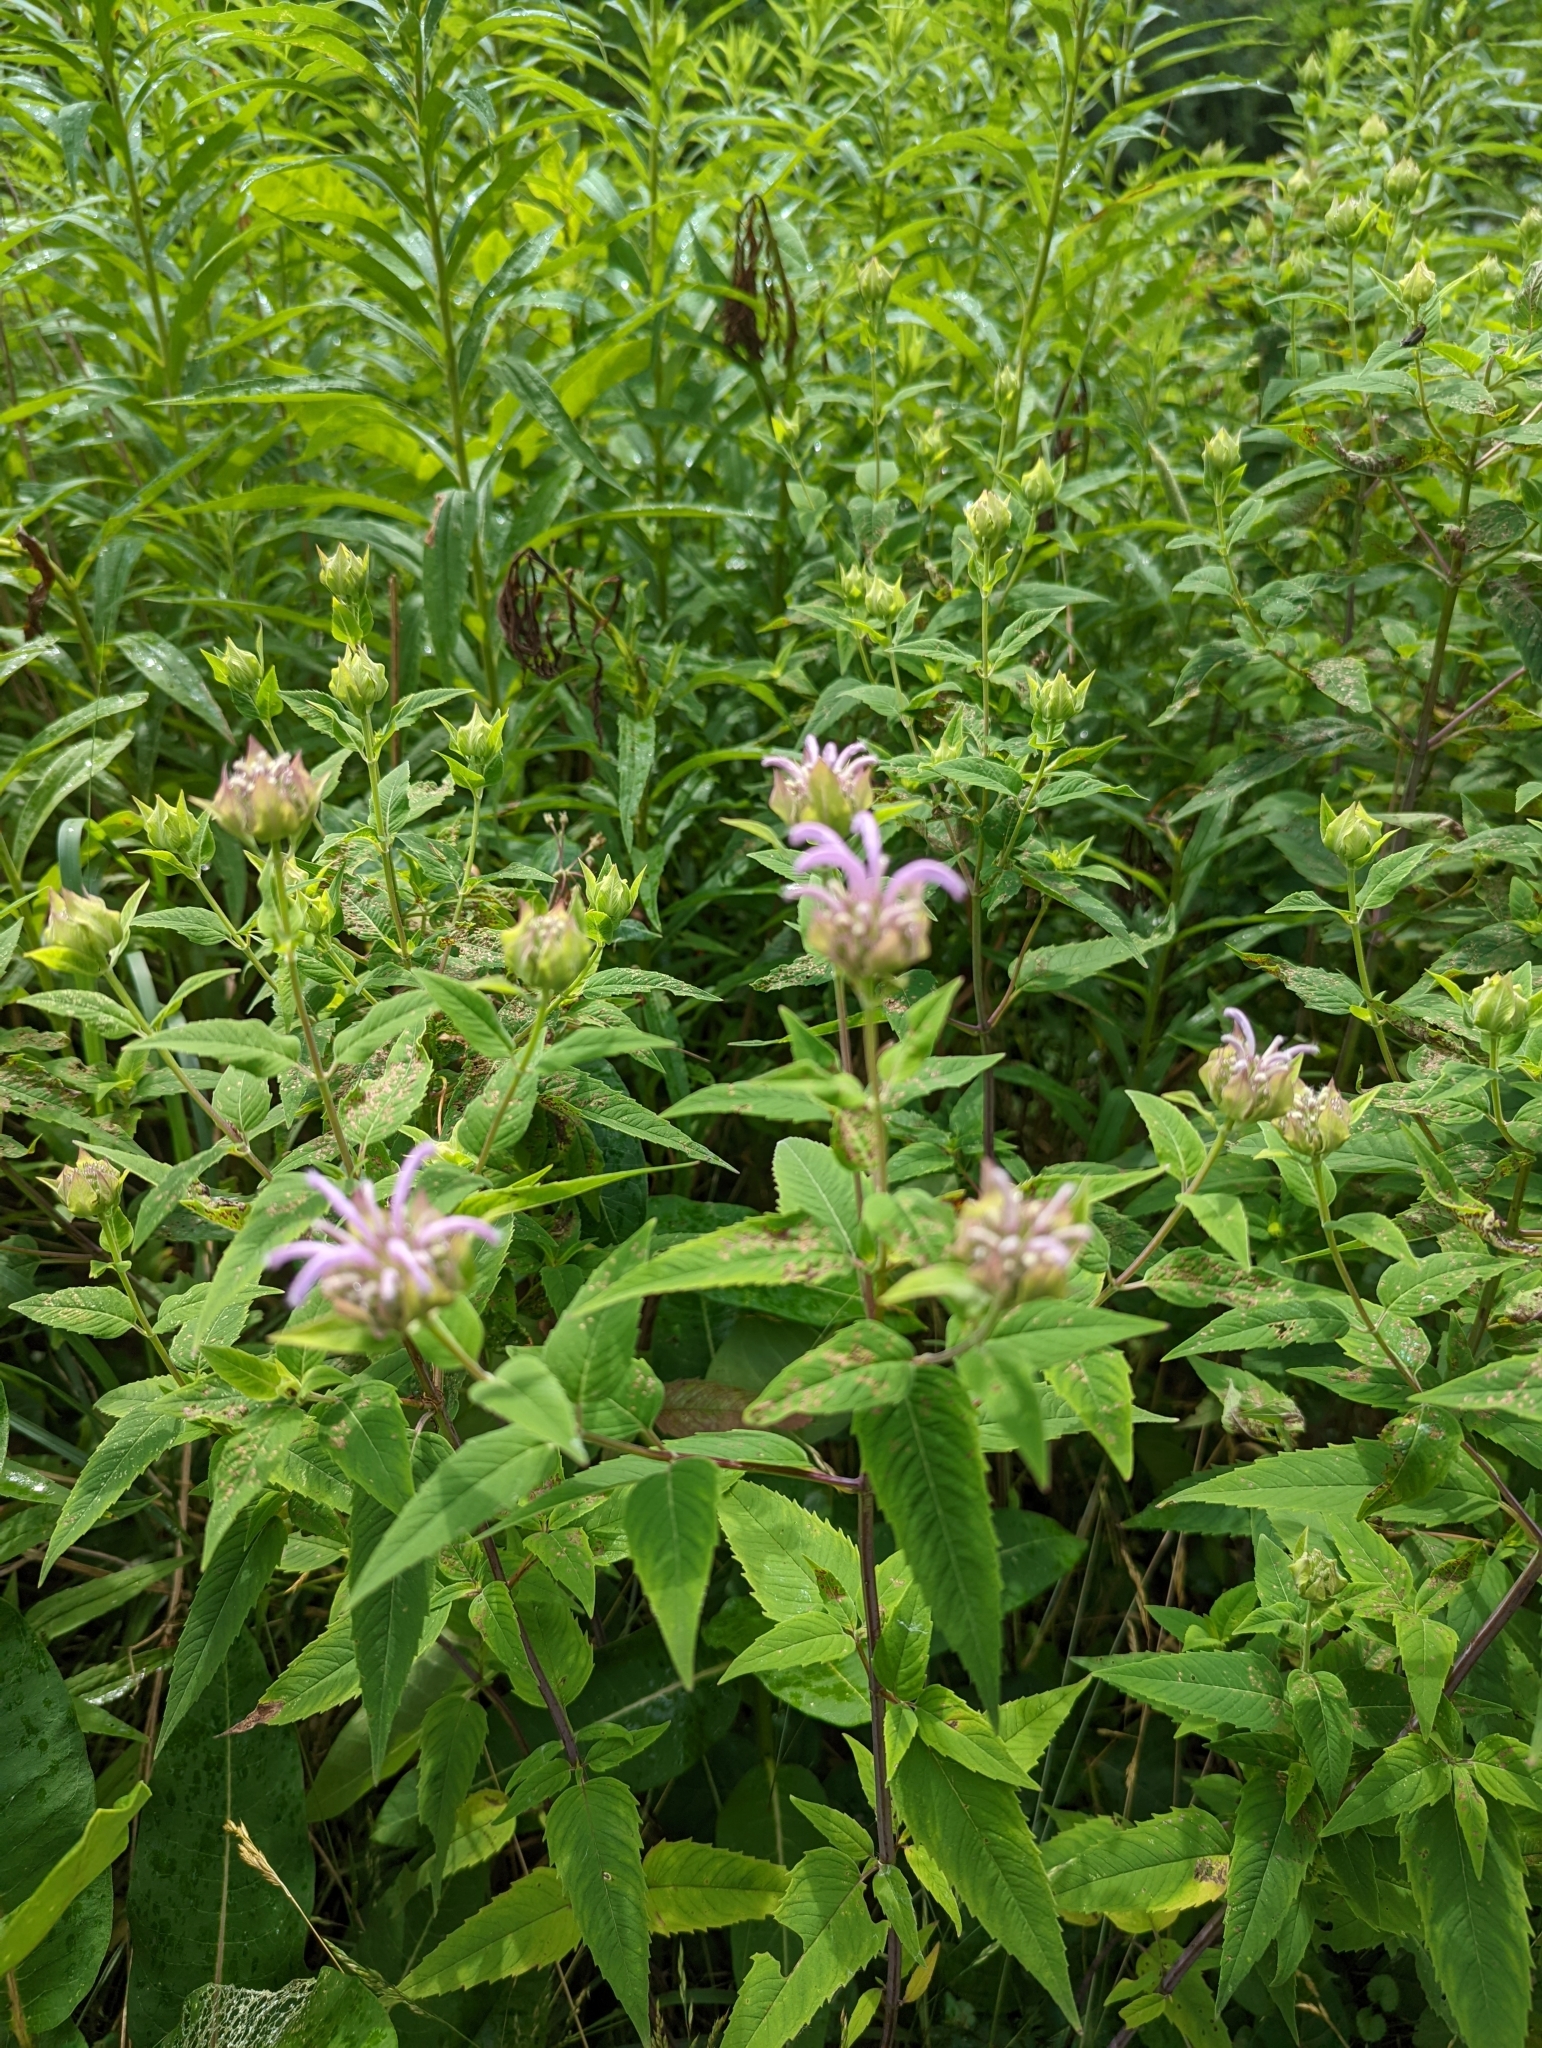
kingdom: Plantae
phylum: Tracheophyta
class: Magnoliopsida
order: Lamiales
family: Lamiaceae
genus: Monarda
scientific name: Monarda fistulosa
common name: Purple beebalm
